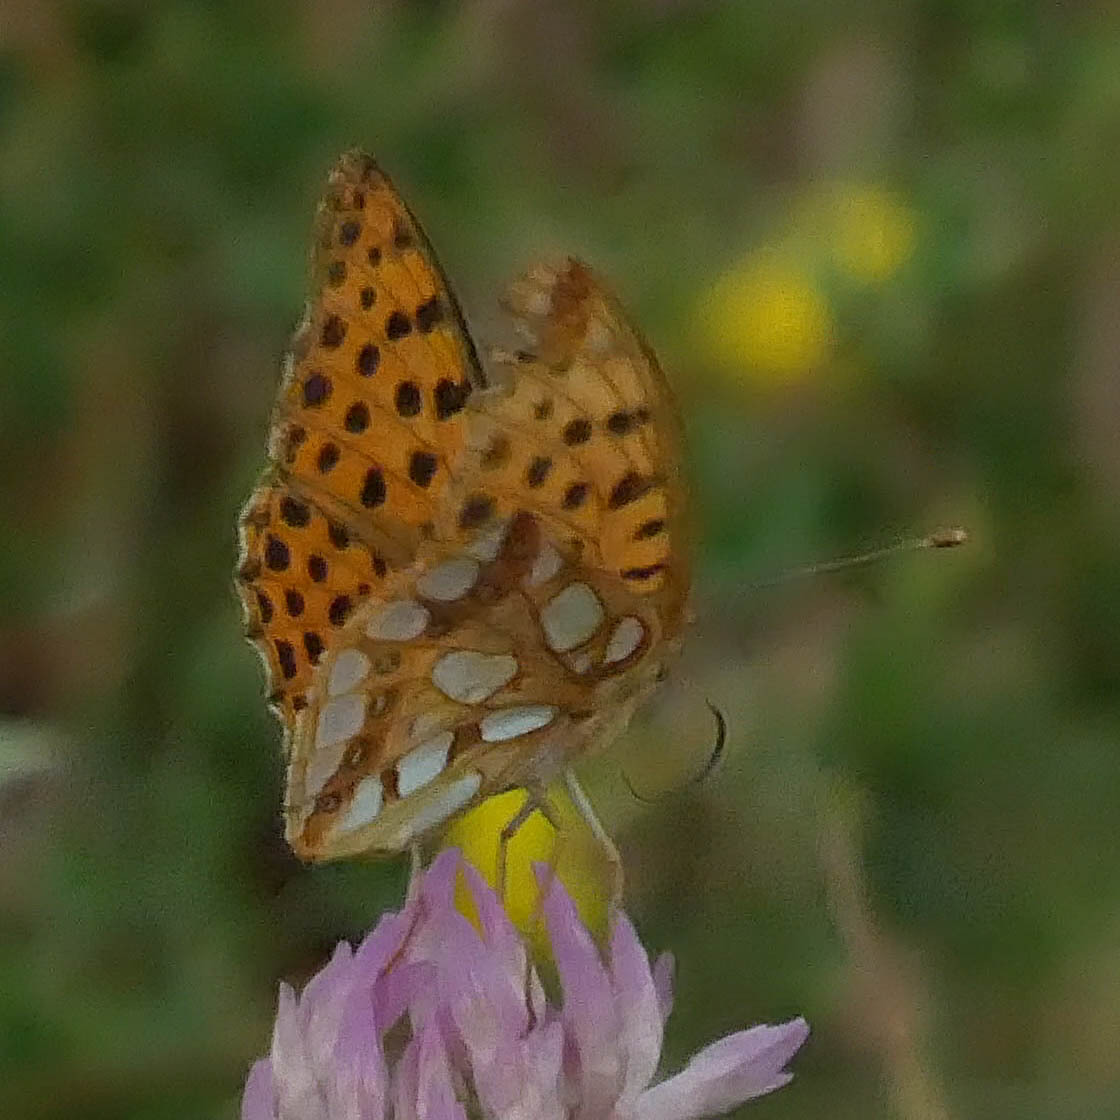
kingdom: Animalia
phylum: Arthropoda
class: Insecta
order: Lepidoptera
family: Nymphalidae
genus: Issoria
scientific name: Issoria lathonia
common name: Queen of spain fritillary
